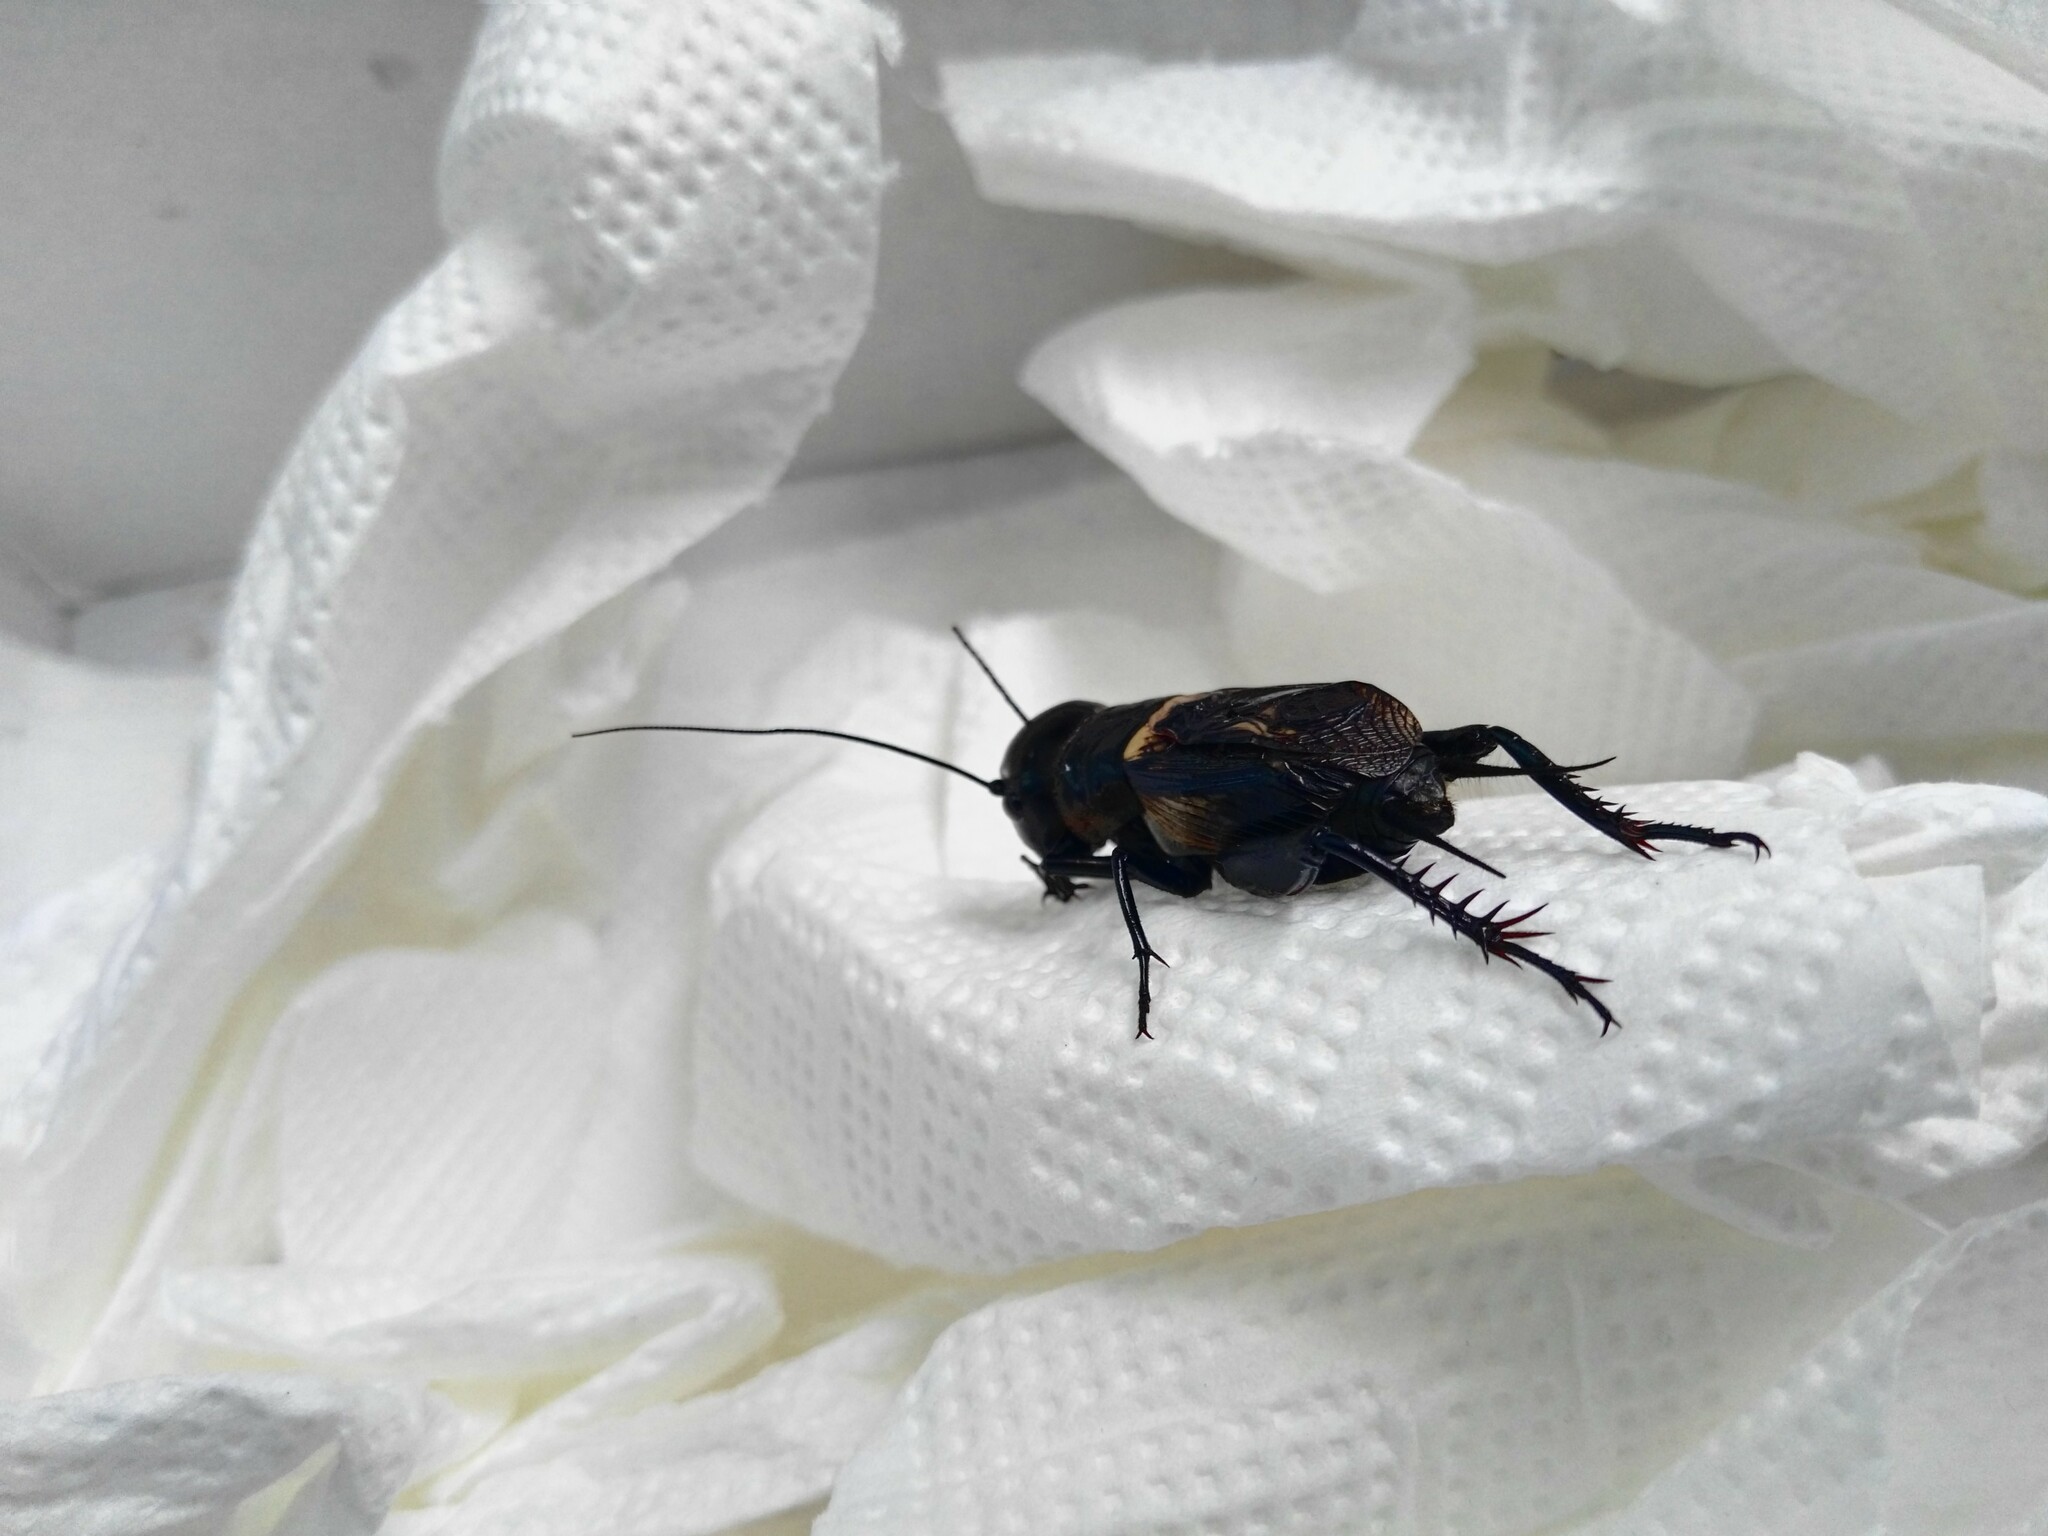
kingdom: Animalia
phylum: Arthropoda
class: Insecta
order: Orthoptera
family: Gryllidae
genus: Gryllus
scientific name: Gryllus campestris
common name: Field cricket
